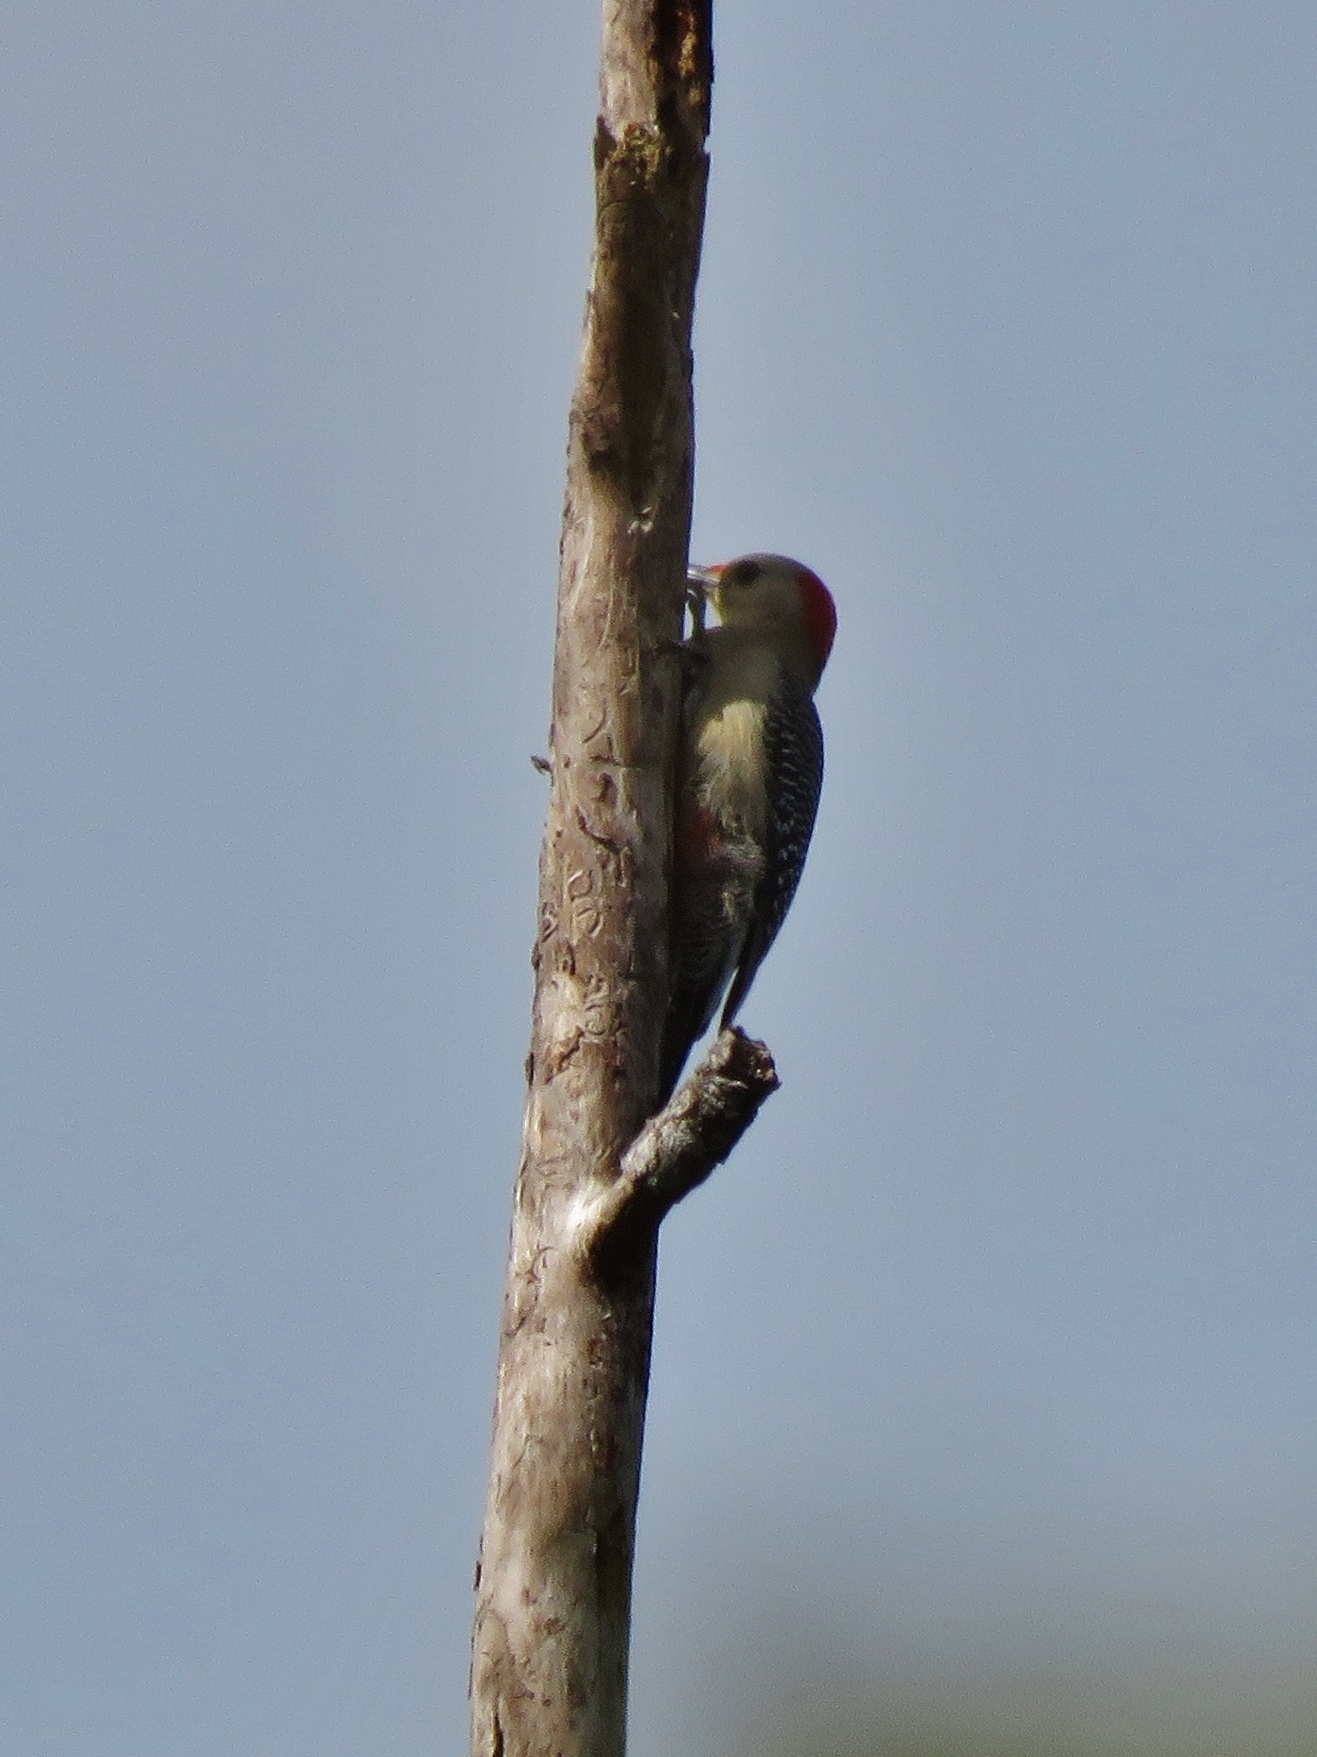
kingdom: Animalia
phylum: Chordata
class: Aves
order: Piciformes
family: Picidae
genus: Melanerpes
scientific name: Melanerpes aurifrons
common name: Golden-fronted woodpecker
